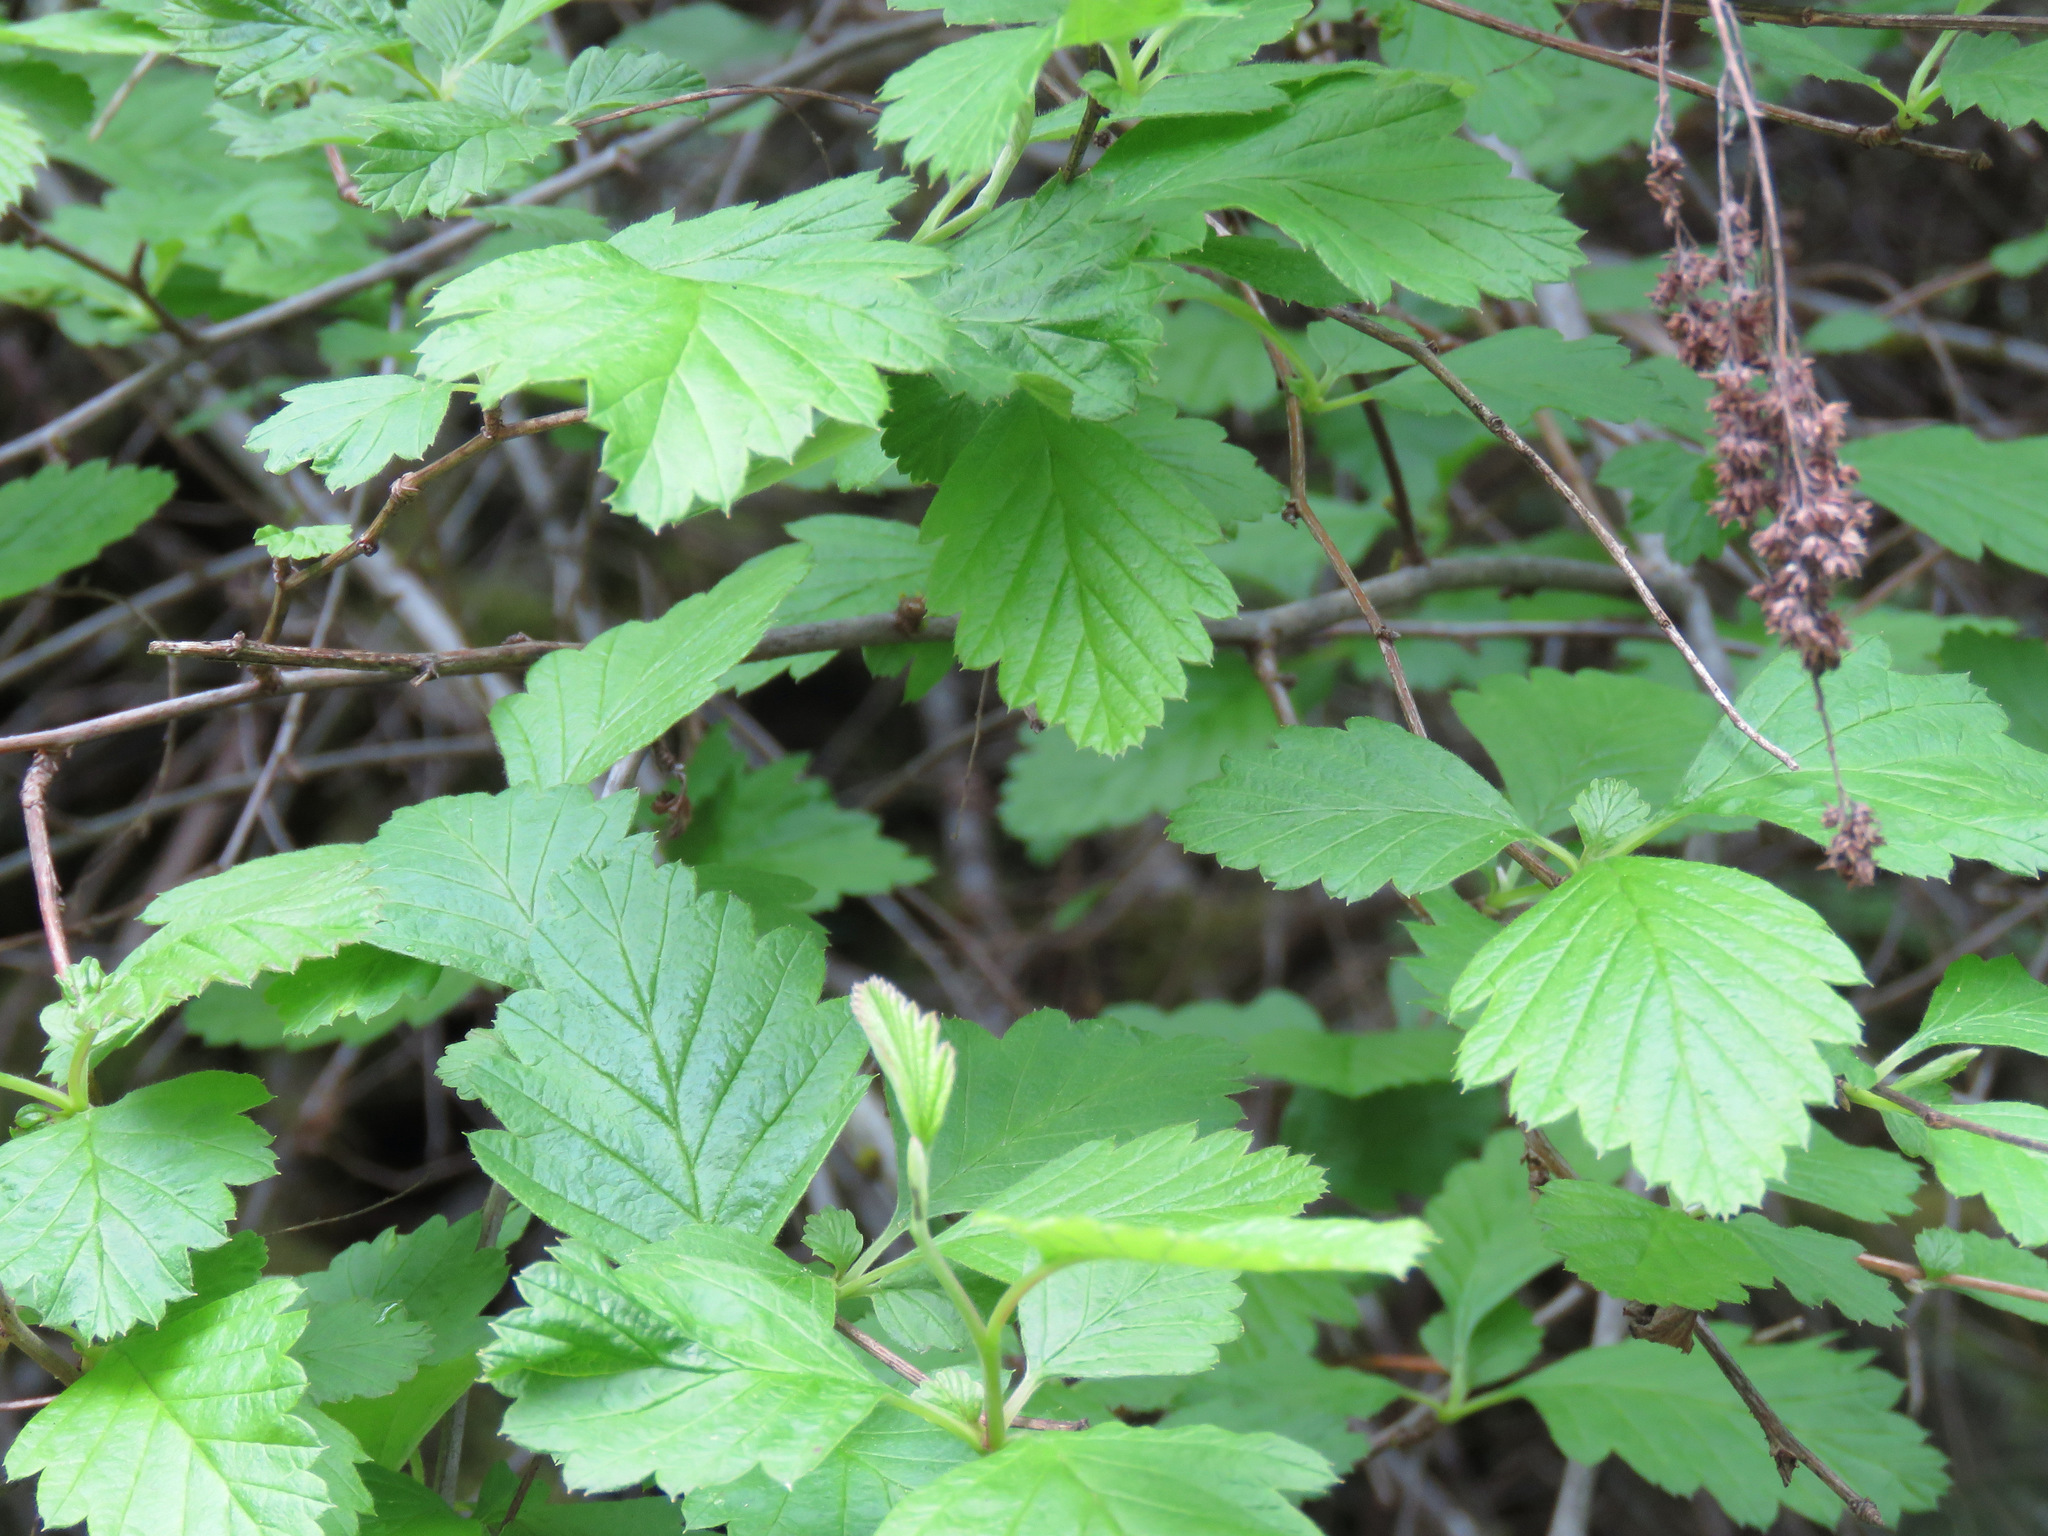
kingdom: Plantae
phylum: Tracheophyta
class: Magnoliopsida
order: Rosales
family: Rosaceae
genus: Holodiscus
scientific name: Holodiscus discolor
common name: Oceanspray
